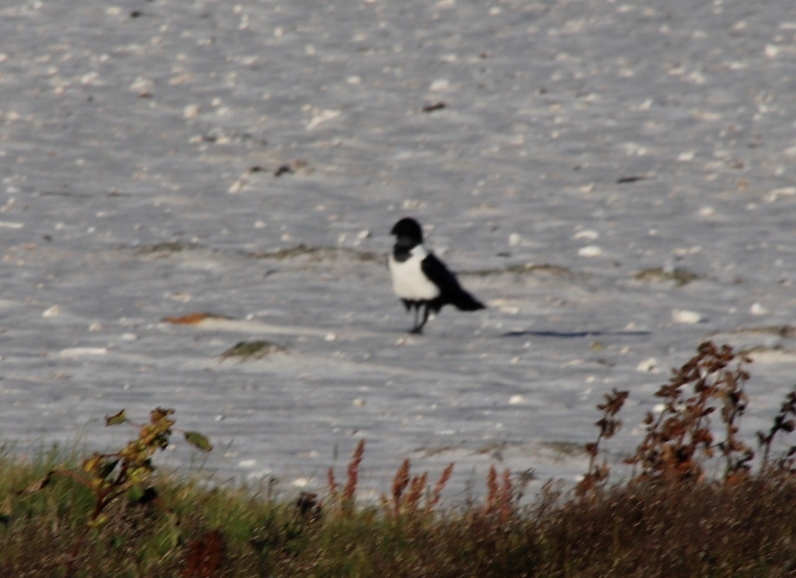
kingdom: Animalia
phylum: Chordata
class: Aves
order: Passeriformes
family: Corvidae
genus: Corvus
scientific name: Corvus albus
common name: Pied crow
